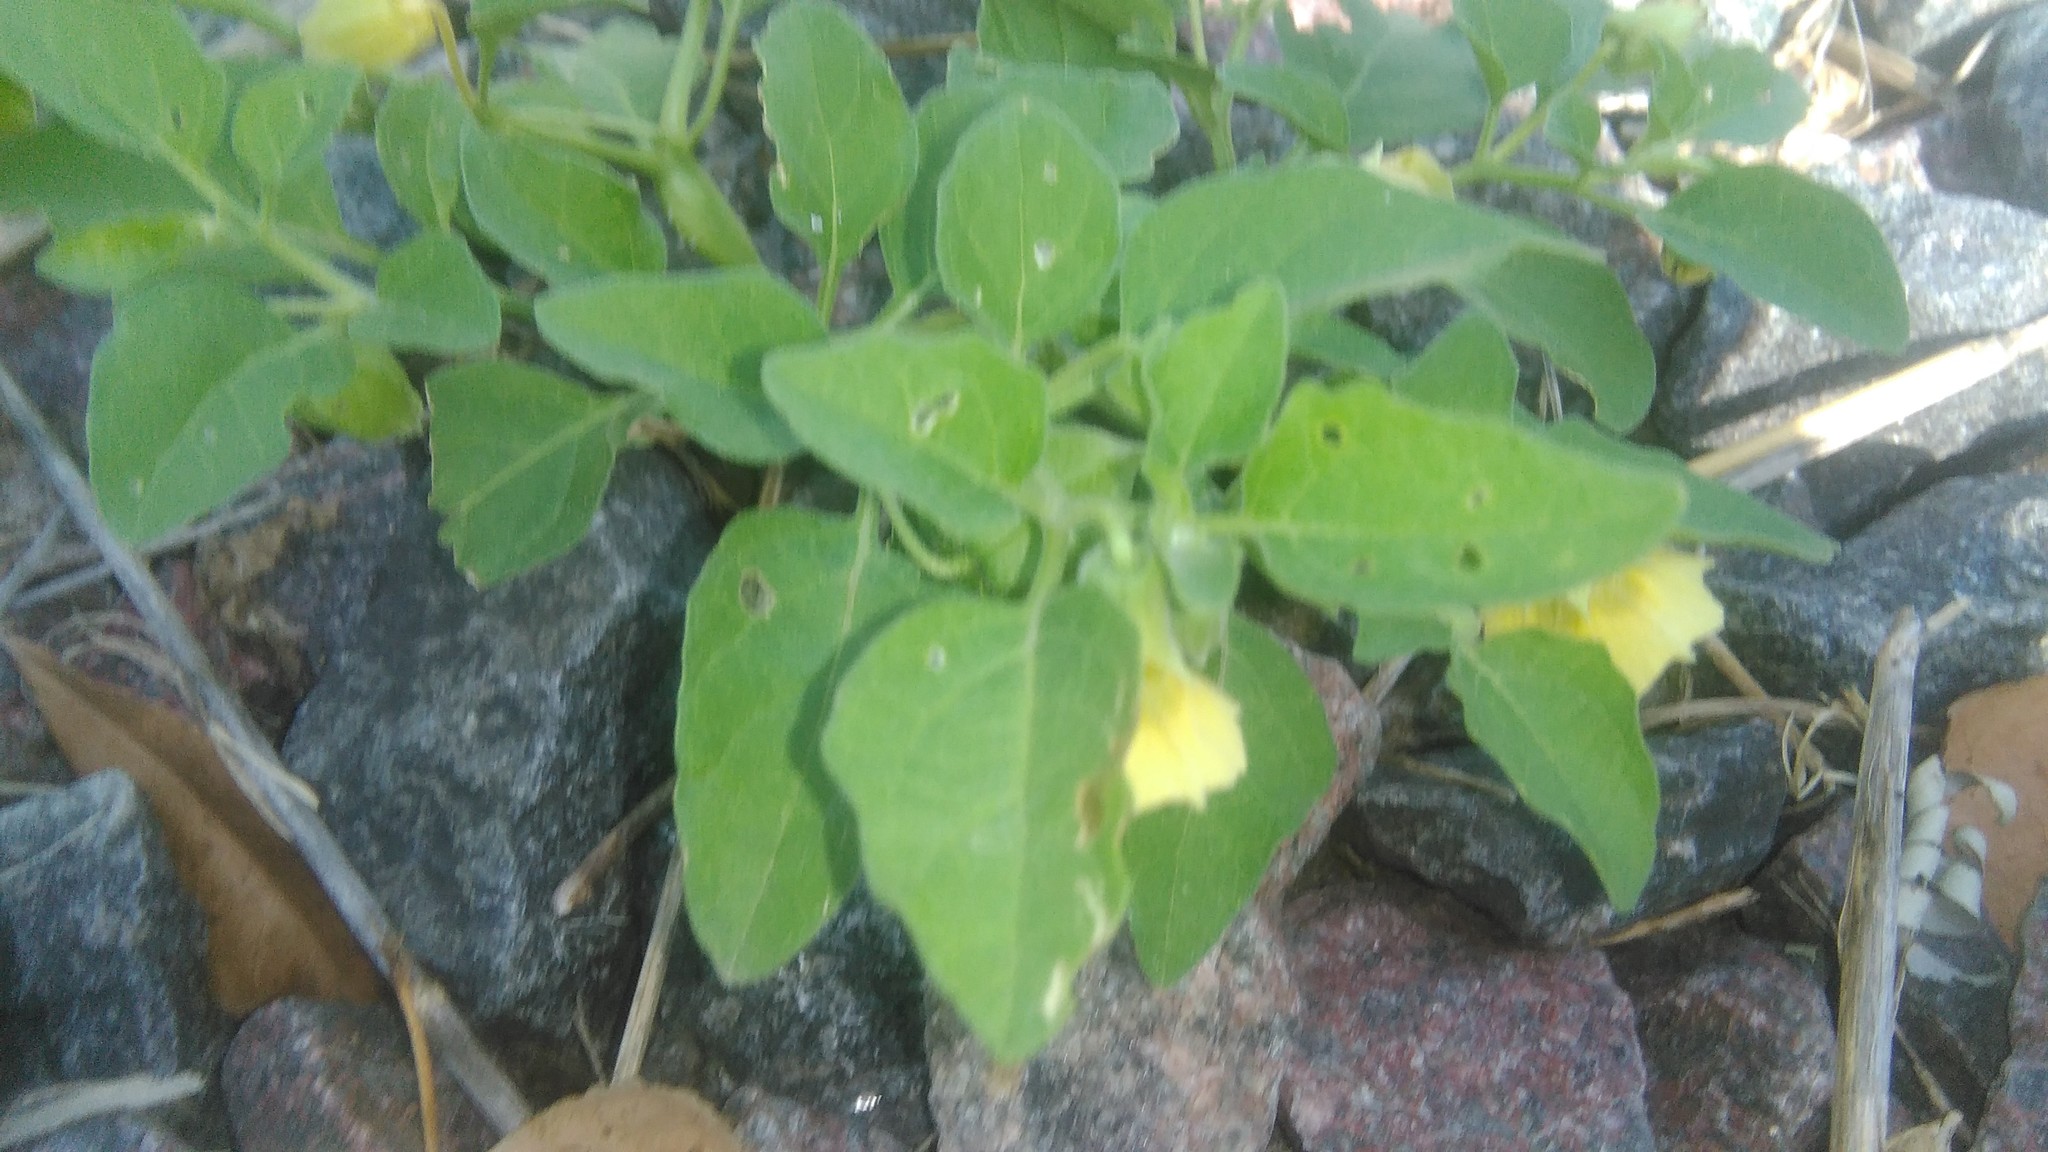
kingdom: Plantae
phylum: Tracheophyta
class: Magnoliopsida
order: Solanales
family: Solanaceae
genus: Physalis
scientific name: Physalis viscosa
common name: Stellate ground-cherry
